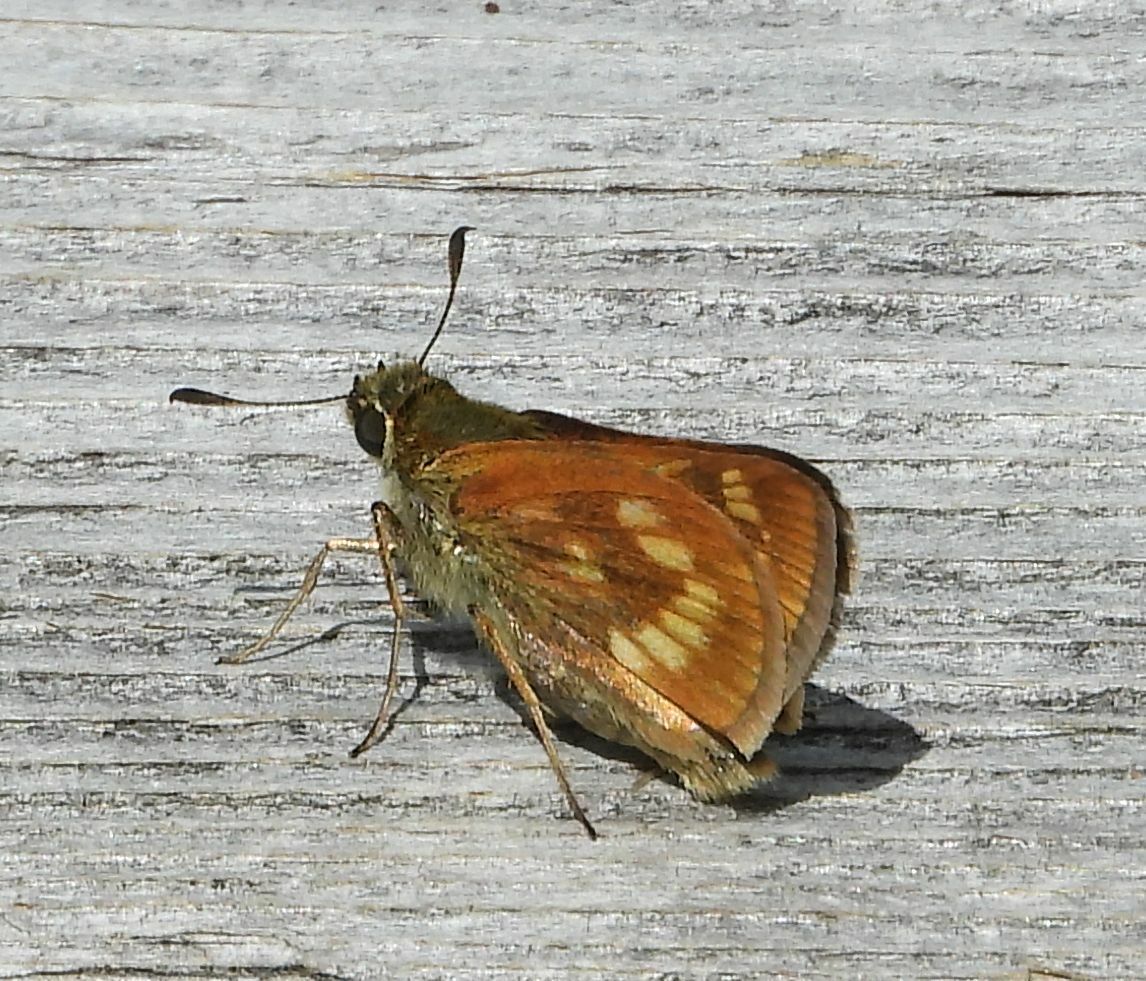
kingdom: Animalia
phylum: Arthropoda
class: Insecta
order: Lepidoptera
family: Hesperiidae
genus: Polites
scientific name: Polites mystic
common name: Long dash
